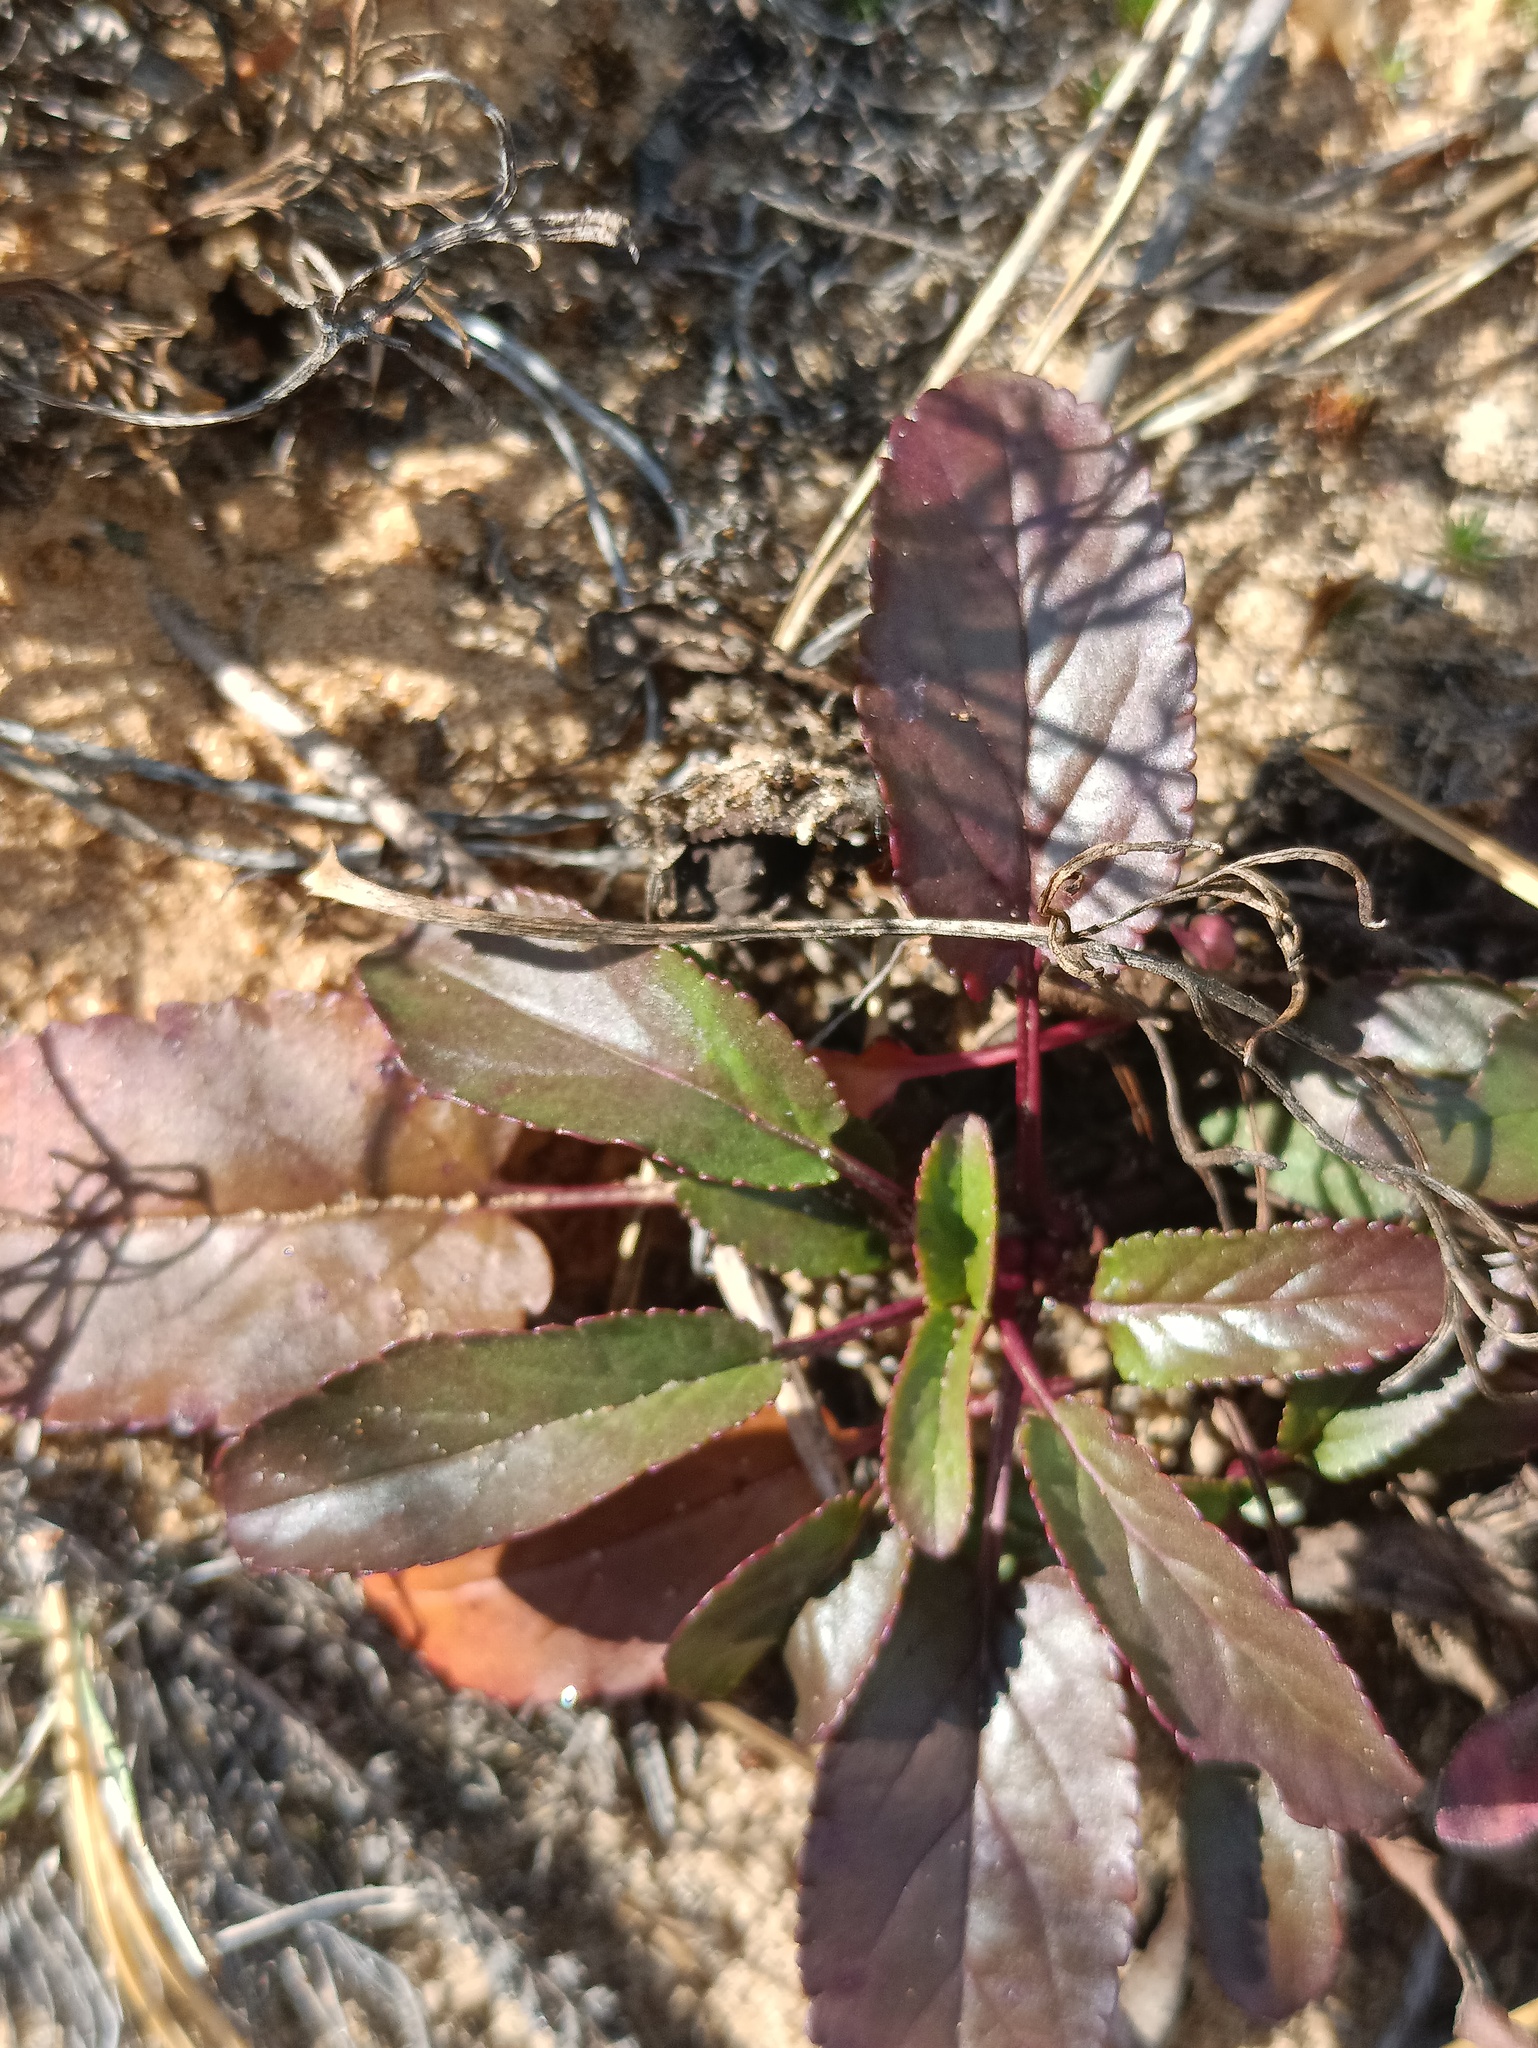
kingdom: Plantae
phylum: Tracheophyta
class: Magnoliopsida
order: Lamiales
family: Plantaginaceae
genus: Veronica
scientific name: Veronica spicata
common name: Spiked speedwell
